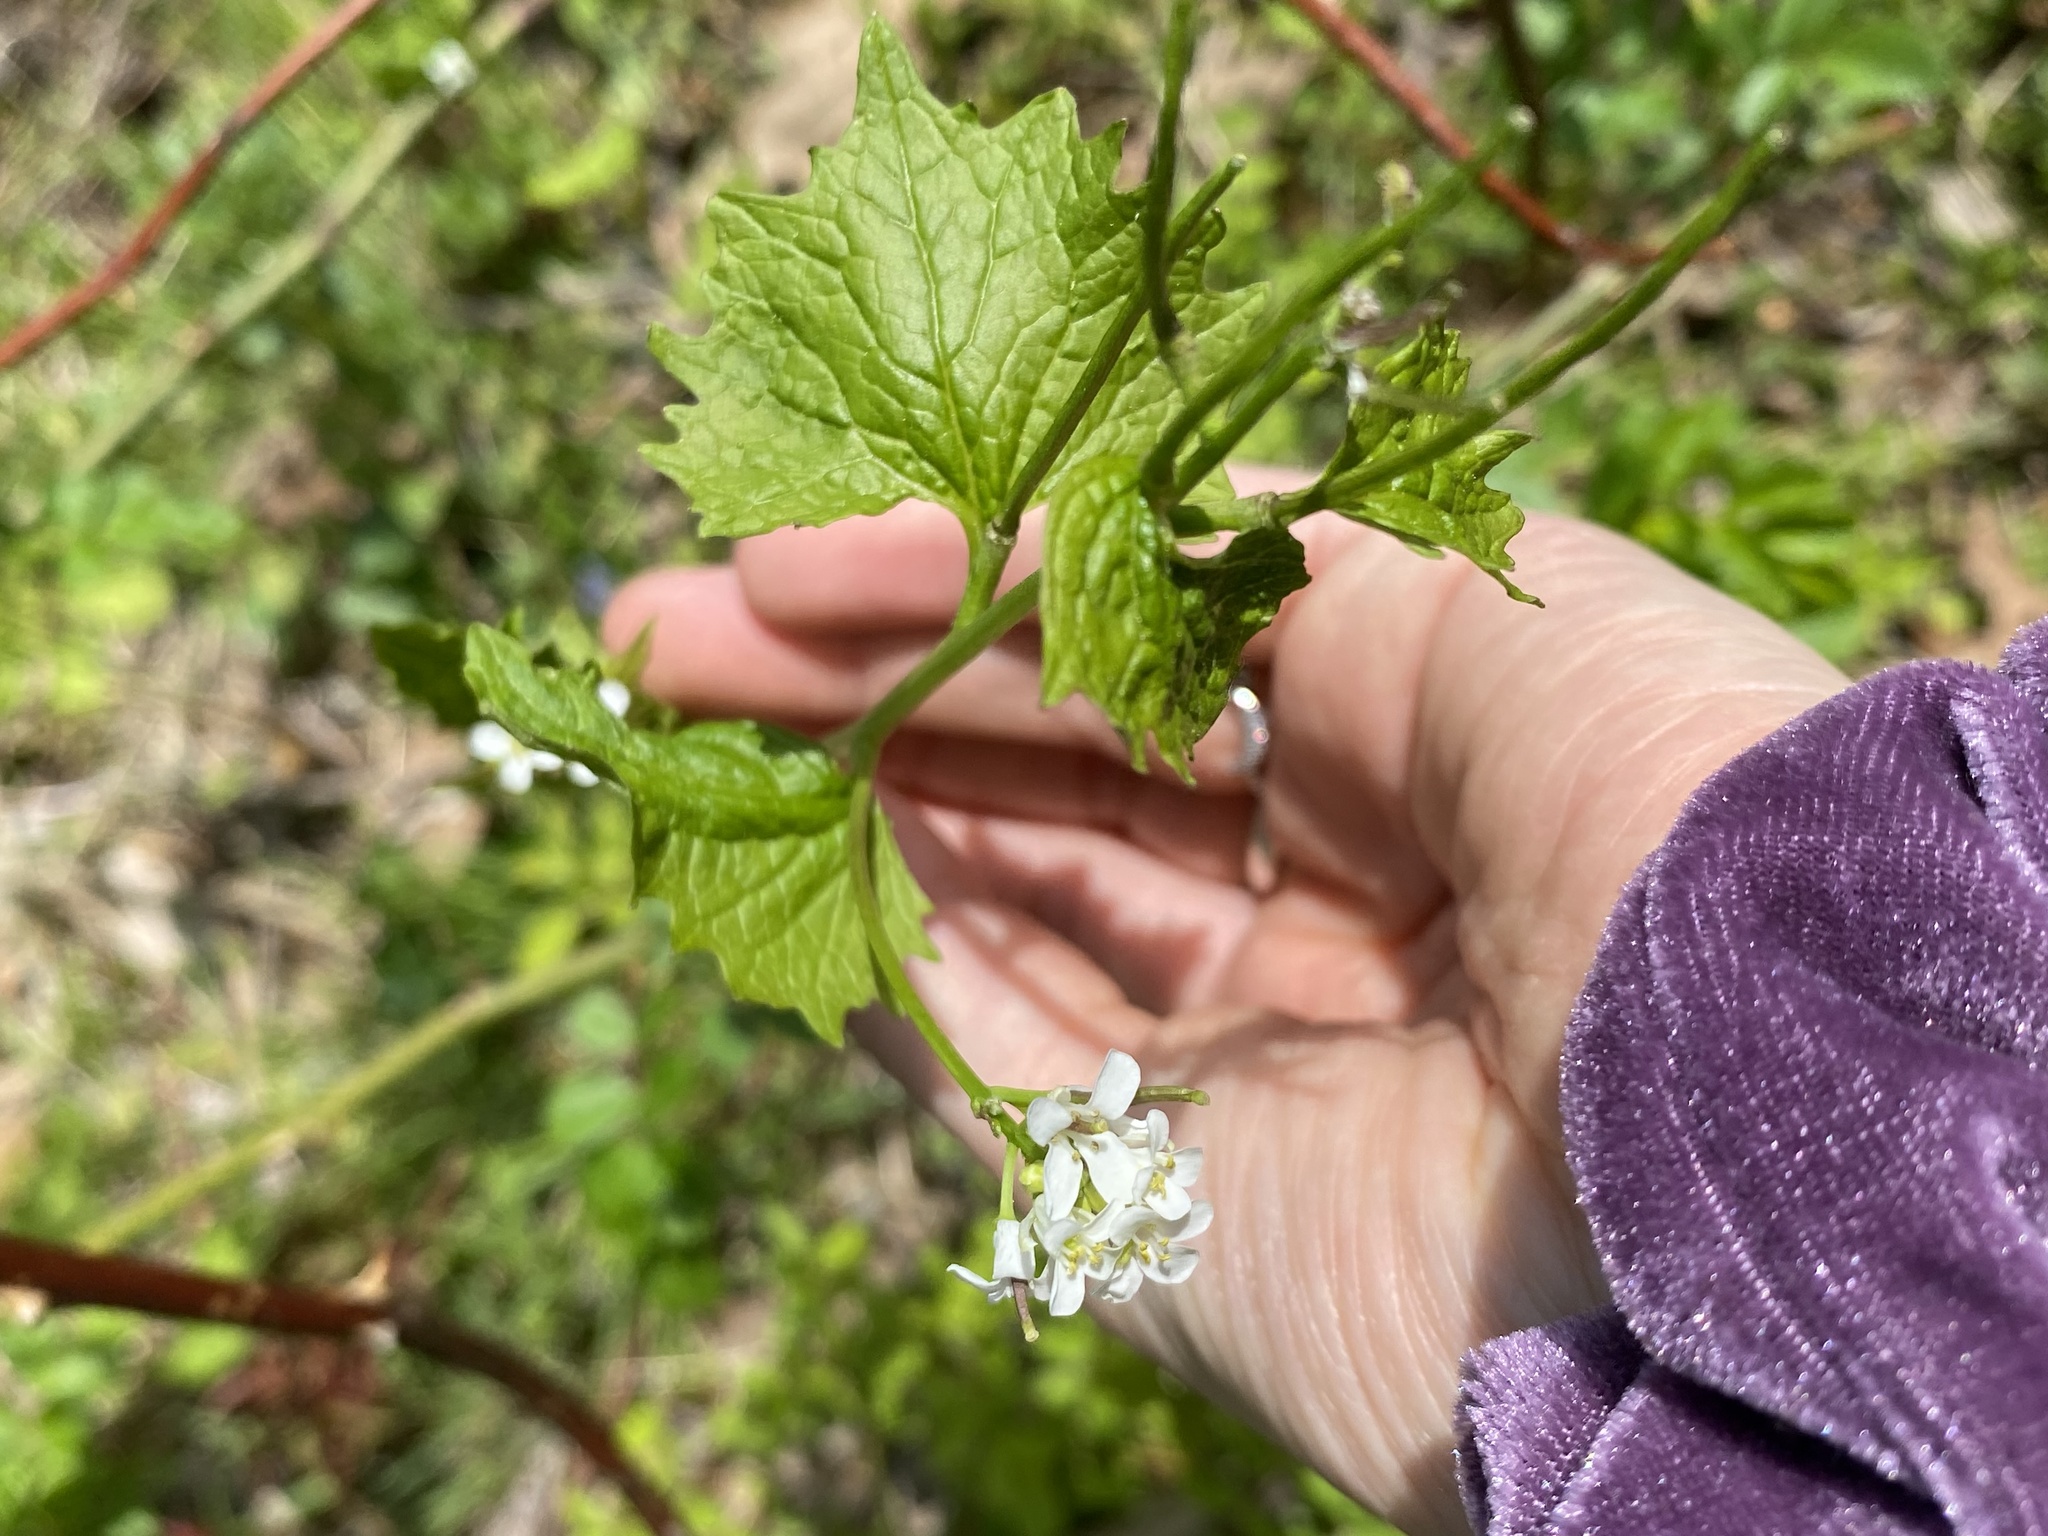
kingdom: Plantae
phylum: Tracheophyta
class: Magnoliopsida
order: Brassicales
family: Brassicaceae
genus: Alliaria
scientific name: Alliaria petiolata
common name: Garlic mustard
